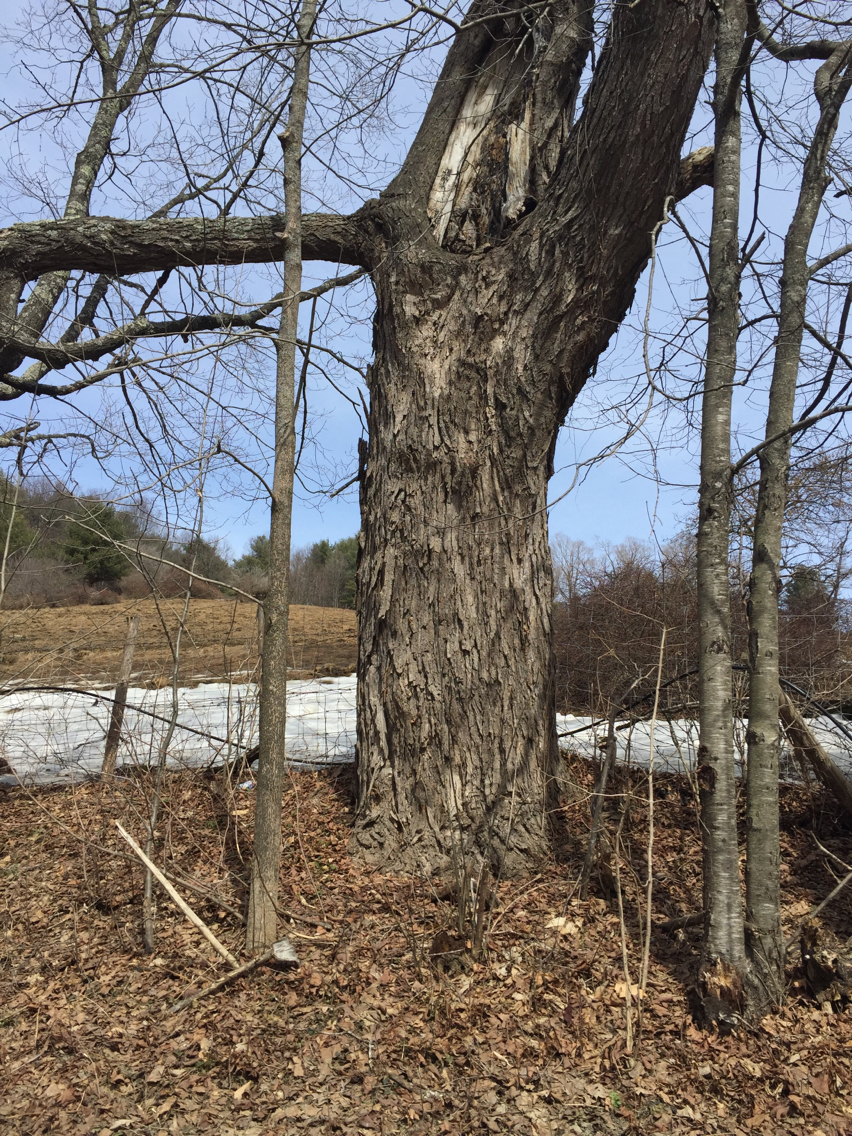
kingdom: Plantae
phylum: Tracheophyta
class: Magnoliopsida
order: Sapindales
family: Sapindaceae
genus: Acer
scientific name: Acer saccharum
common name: Sugar maple
